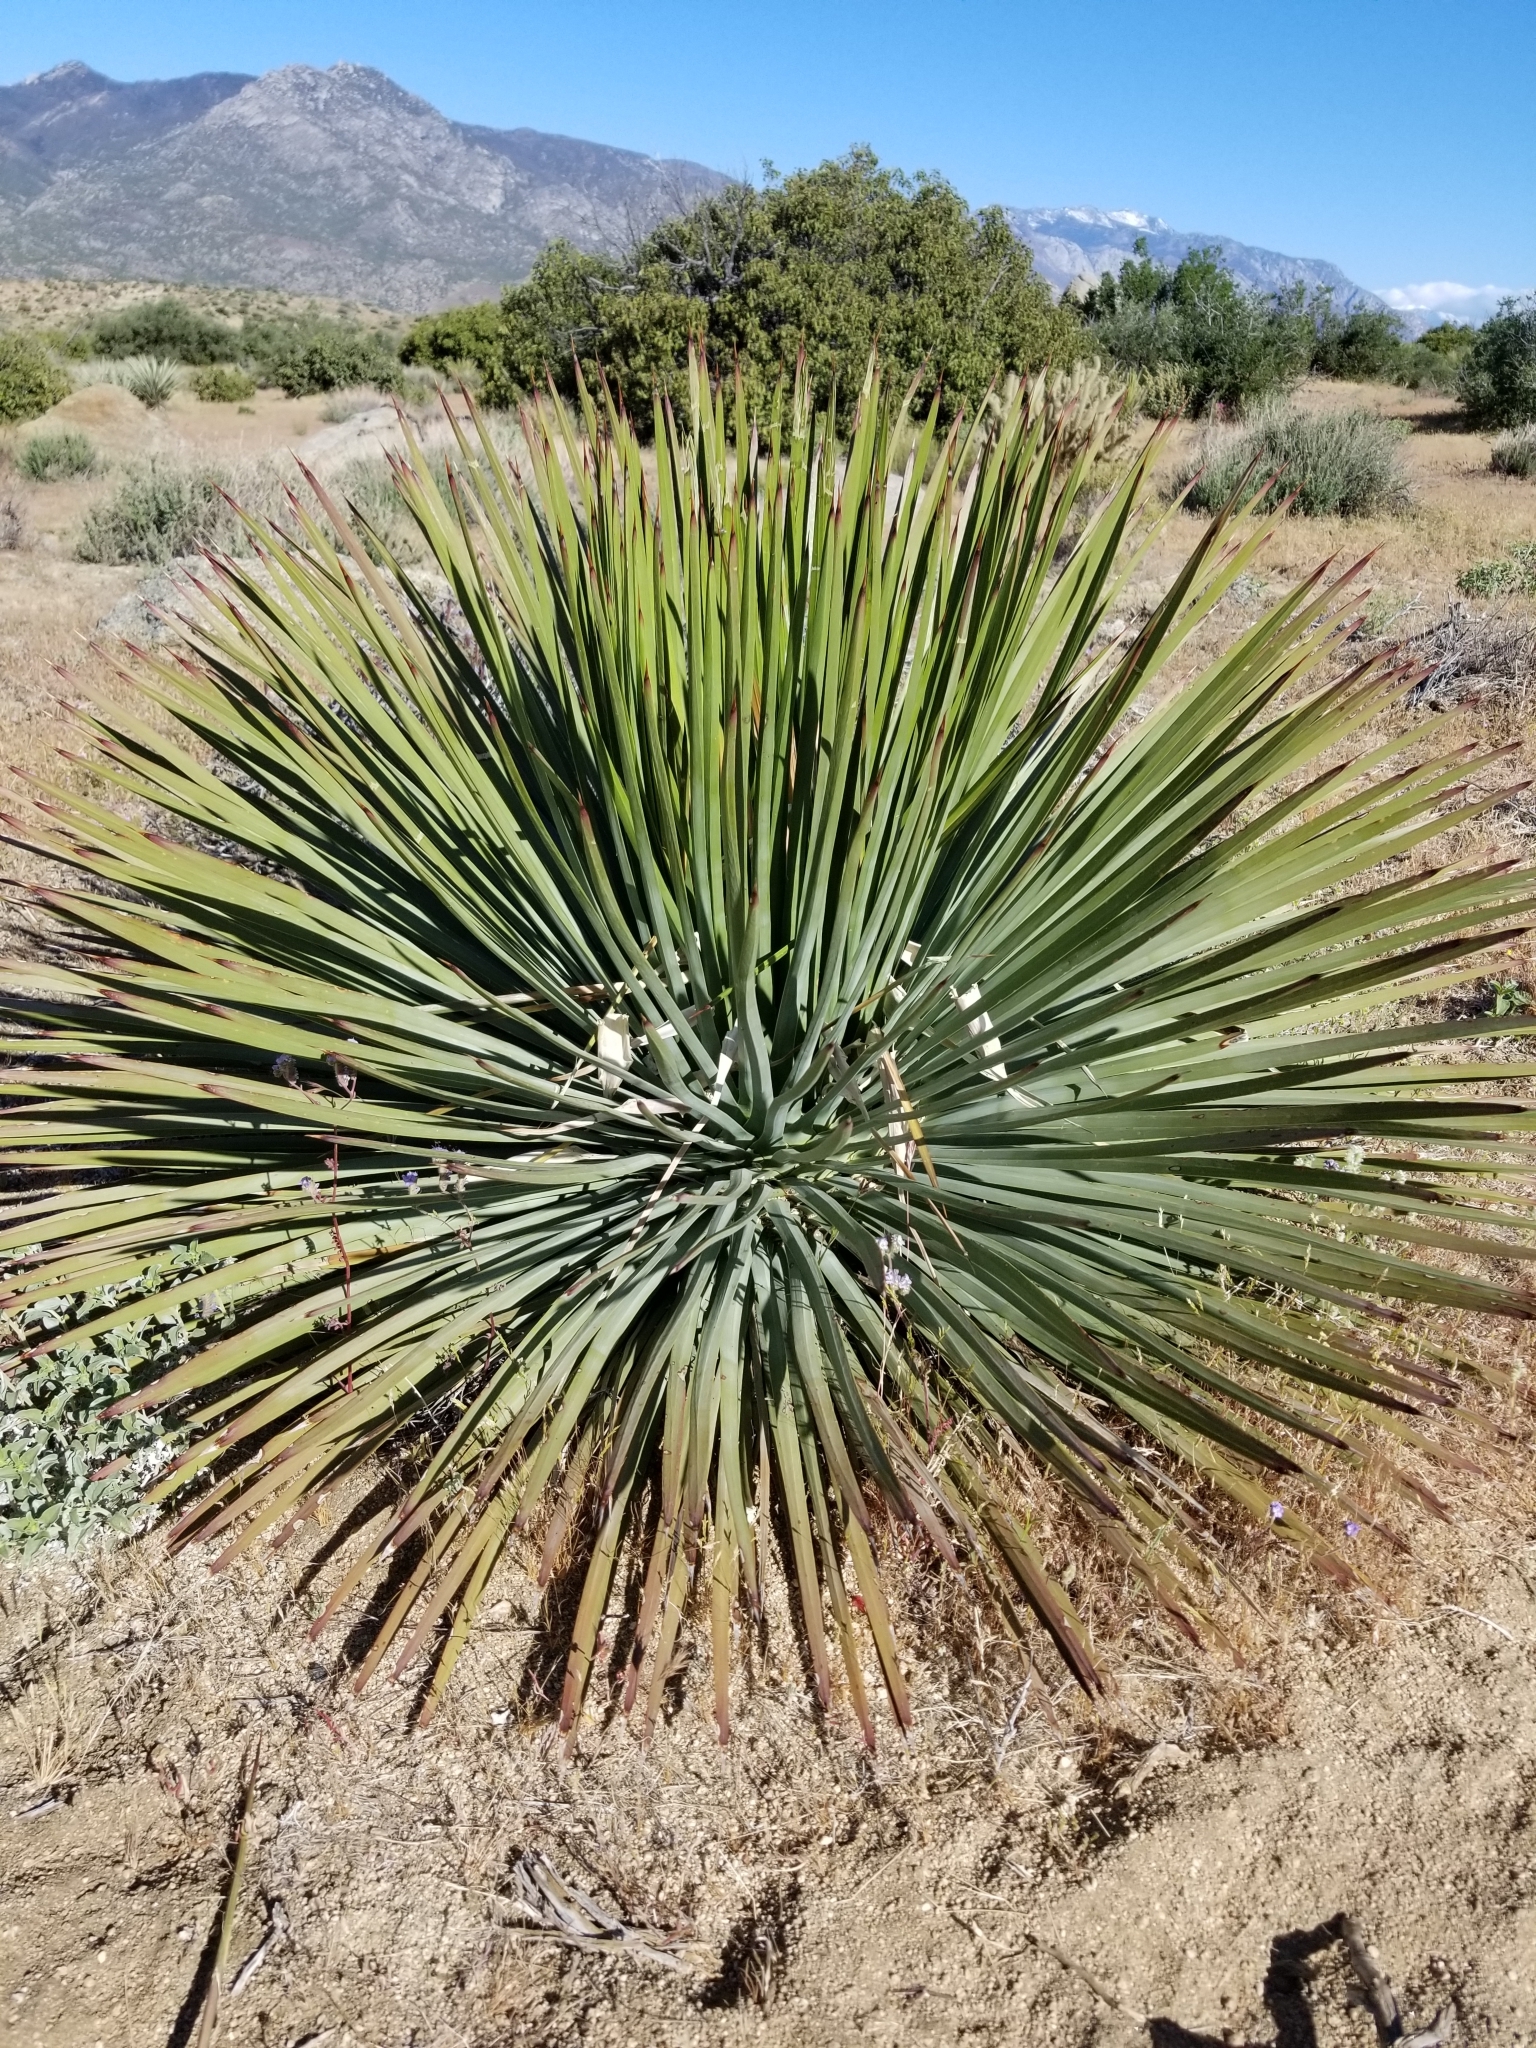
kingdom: Plantae
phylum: Tracheophyta
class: Liliopsida
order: Asparagales
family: Asparagaceae
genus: Hesperoyucca
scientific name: Hesperoyucca whipplei
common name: Our lord's-candle
